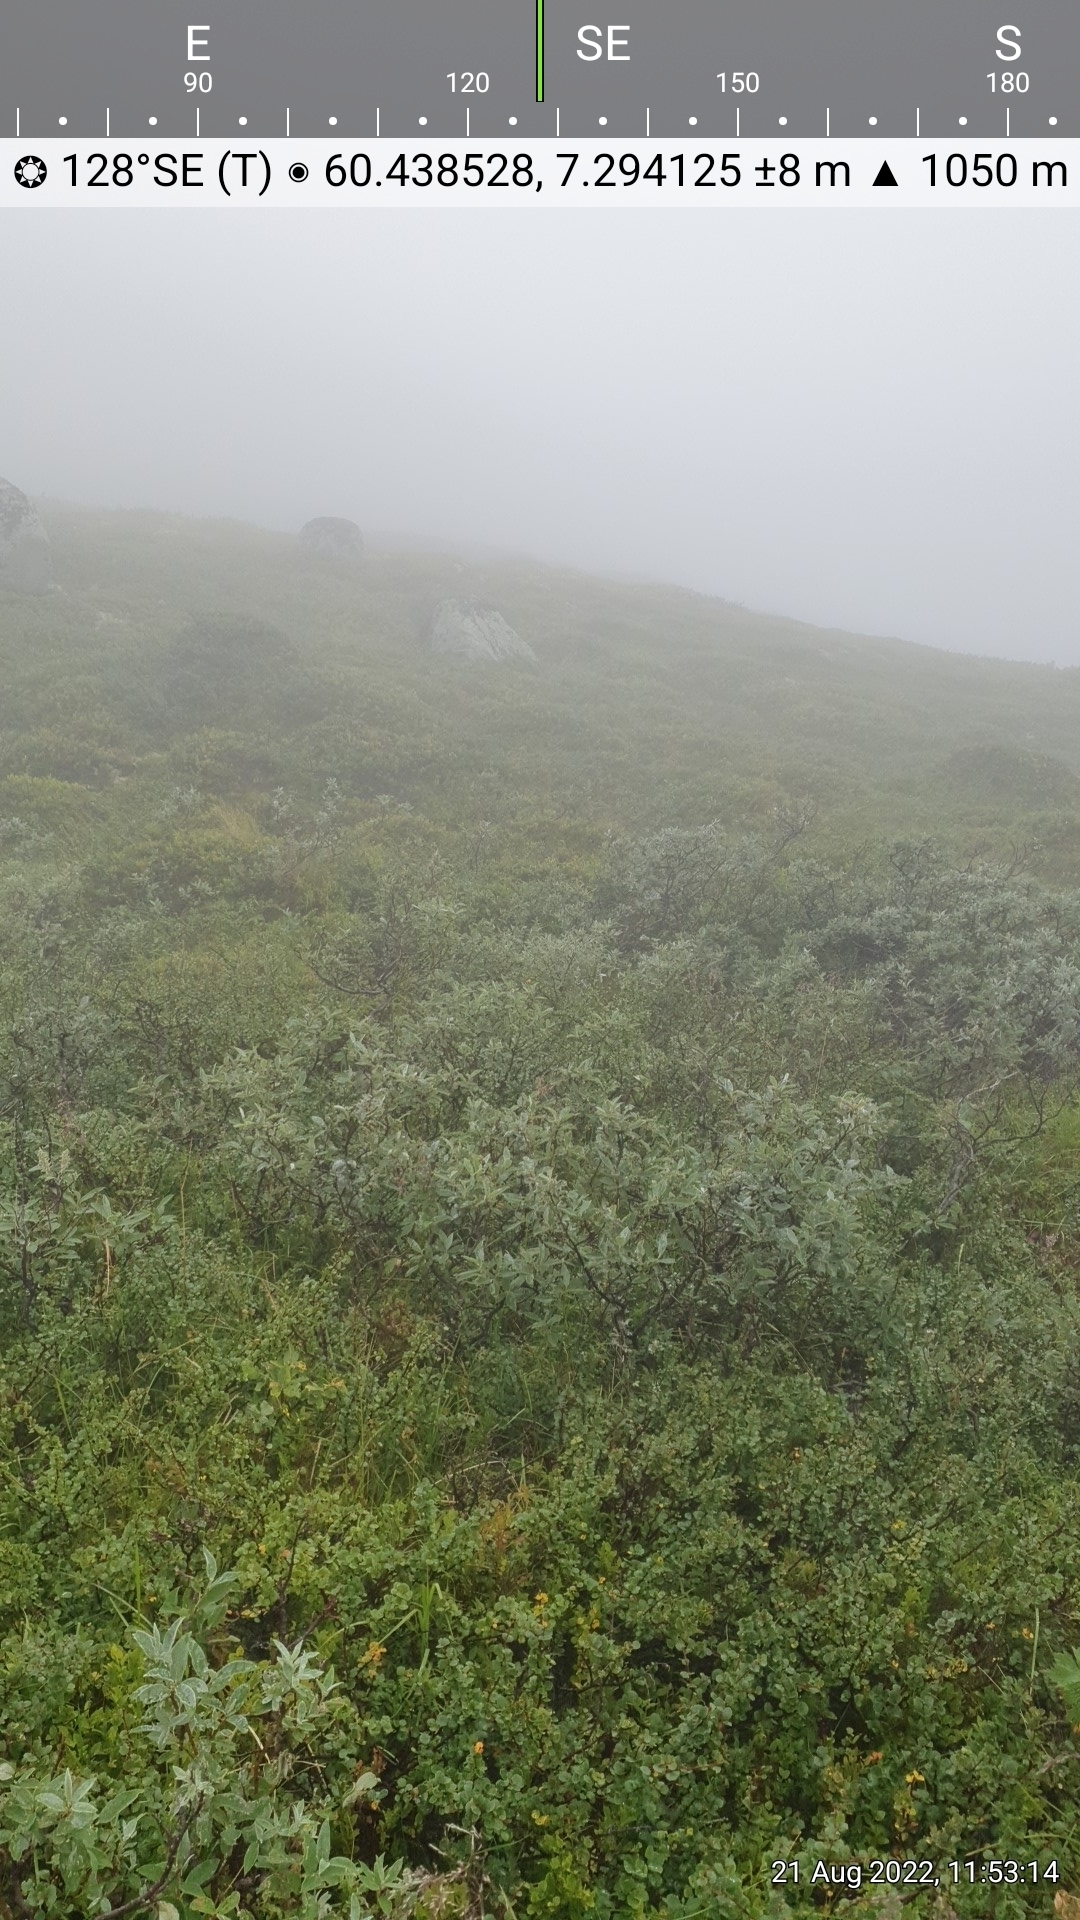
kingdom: Plantae
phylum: Tracheophyta
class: Liliopsida
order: Poales
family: Cyperaceae
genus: Carex
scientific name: Carex vaginata
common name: Sheathed sedge
